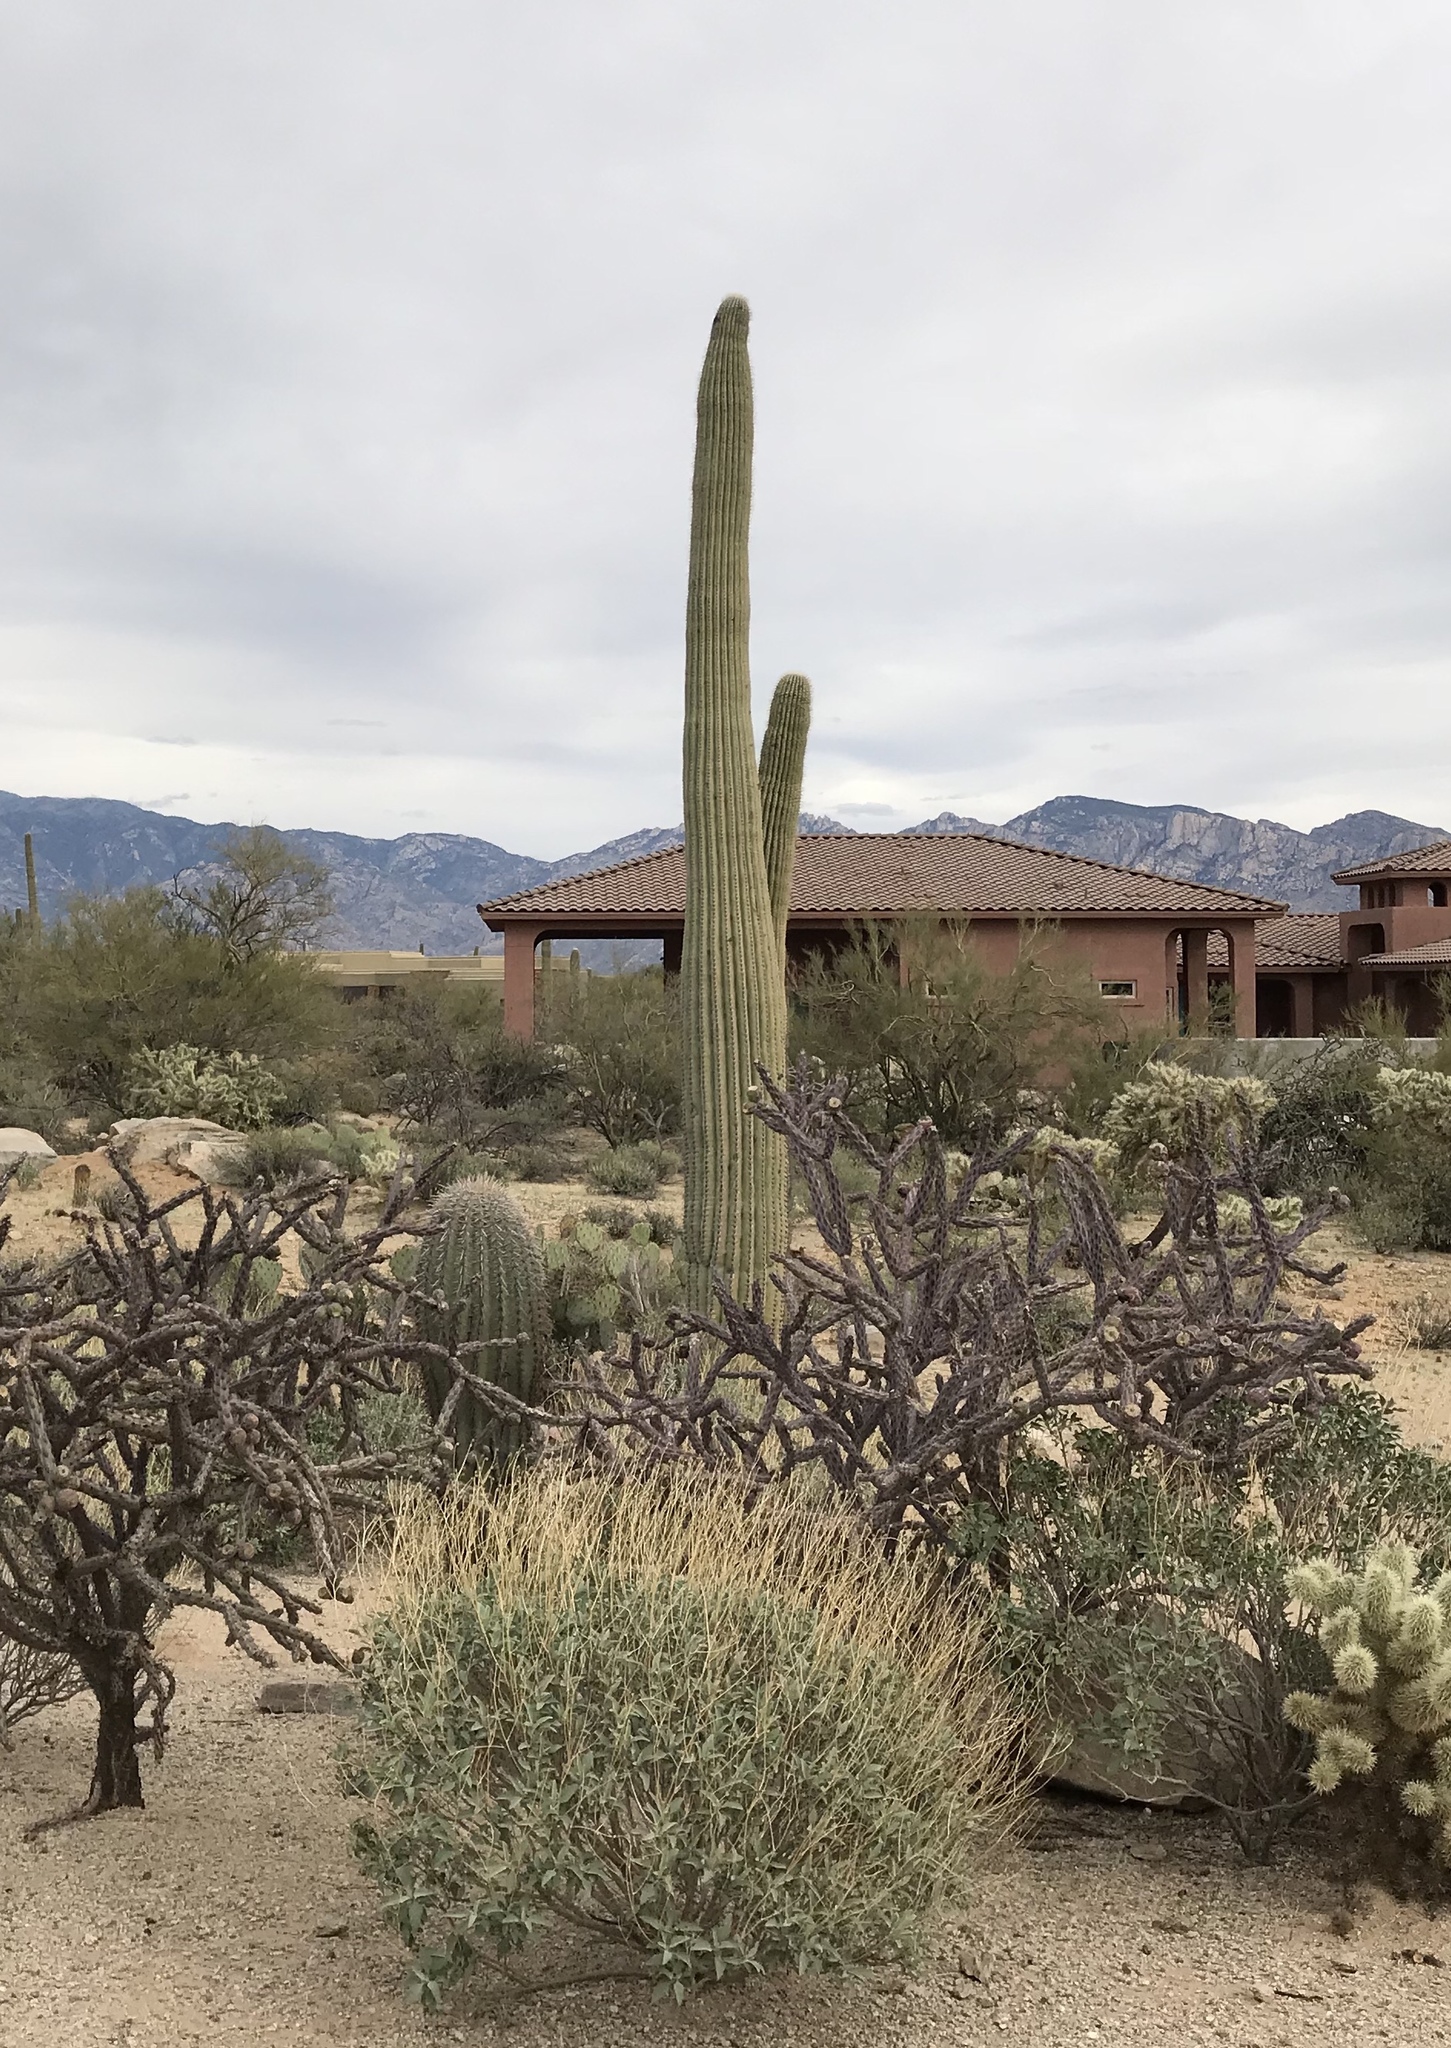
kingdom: Plantae
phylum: Tracheophyta
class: Magnoliopsida
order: Caryophyllales
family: Cactaceae
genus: Carnegiea
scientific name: Carnegiea gigantea
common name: Saguaro
